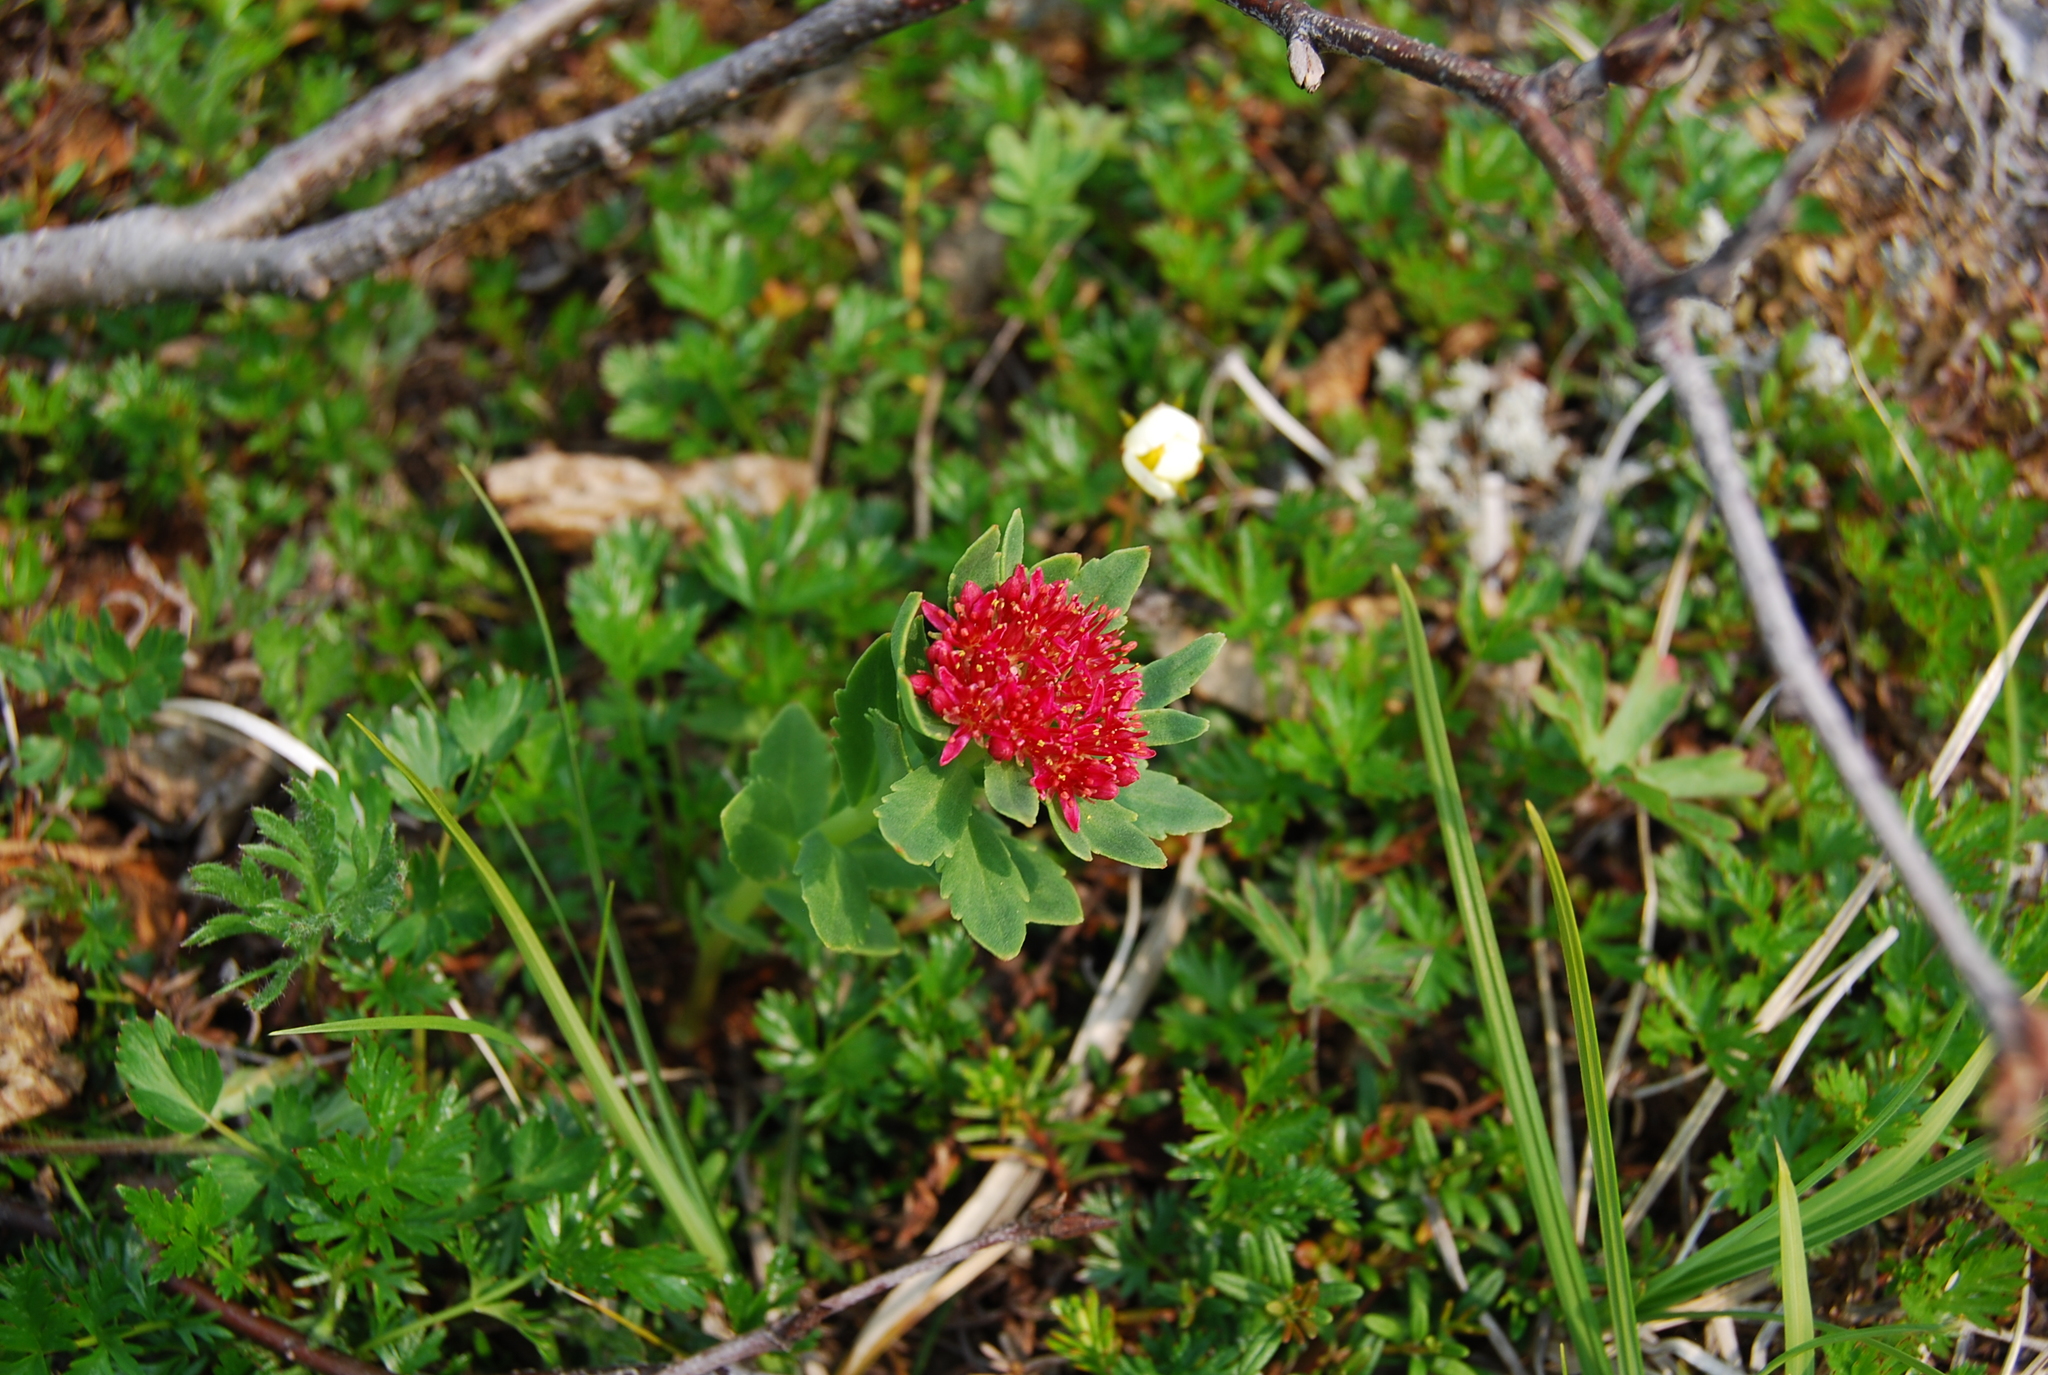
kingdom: Plantae
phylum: Tracheophyta
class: Magnoliopsida
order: Saxifragales
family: Crassulaceae
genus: Rhodiola
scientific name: Rhodiola rosea
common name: Roseroot
